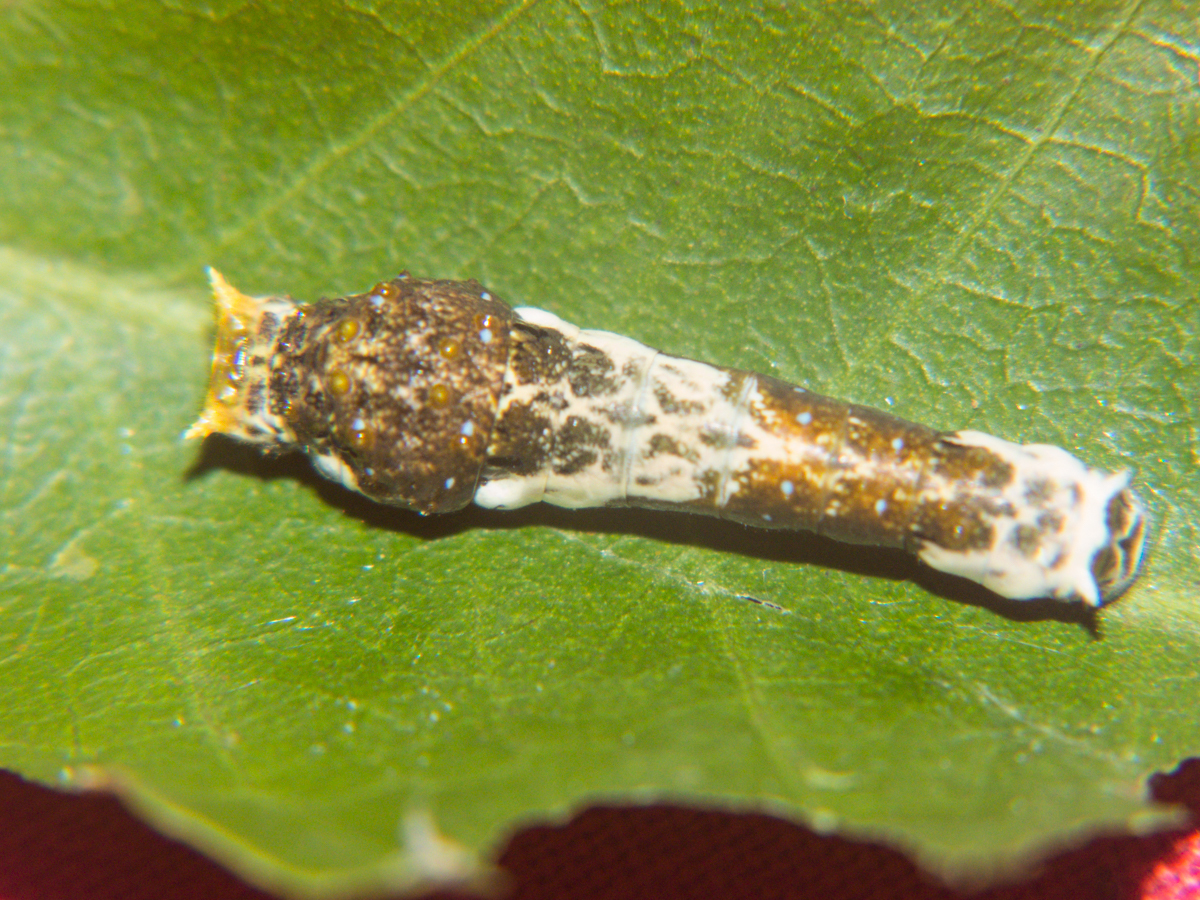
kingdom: Animalia
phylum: Arthropoda
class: Insecta
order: Lepidoptera
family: Papilionidae
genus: Papilio
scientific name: Papilio polytes
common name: Common mormon
